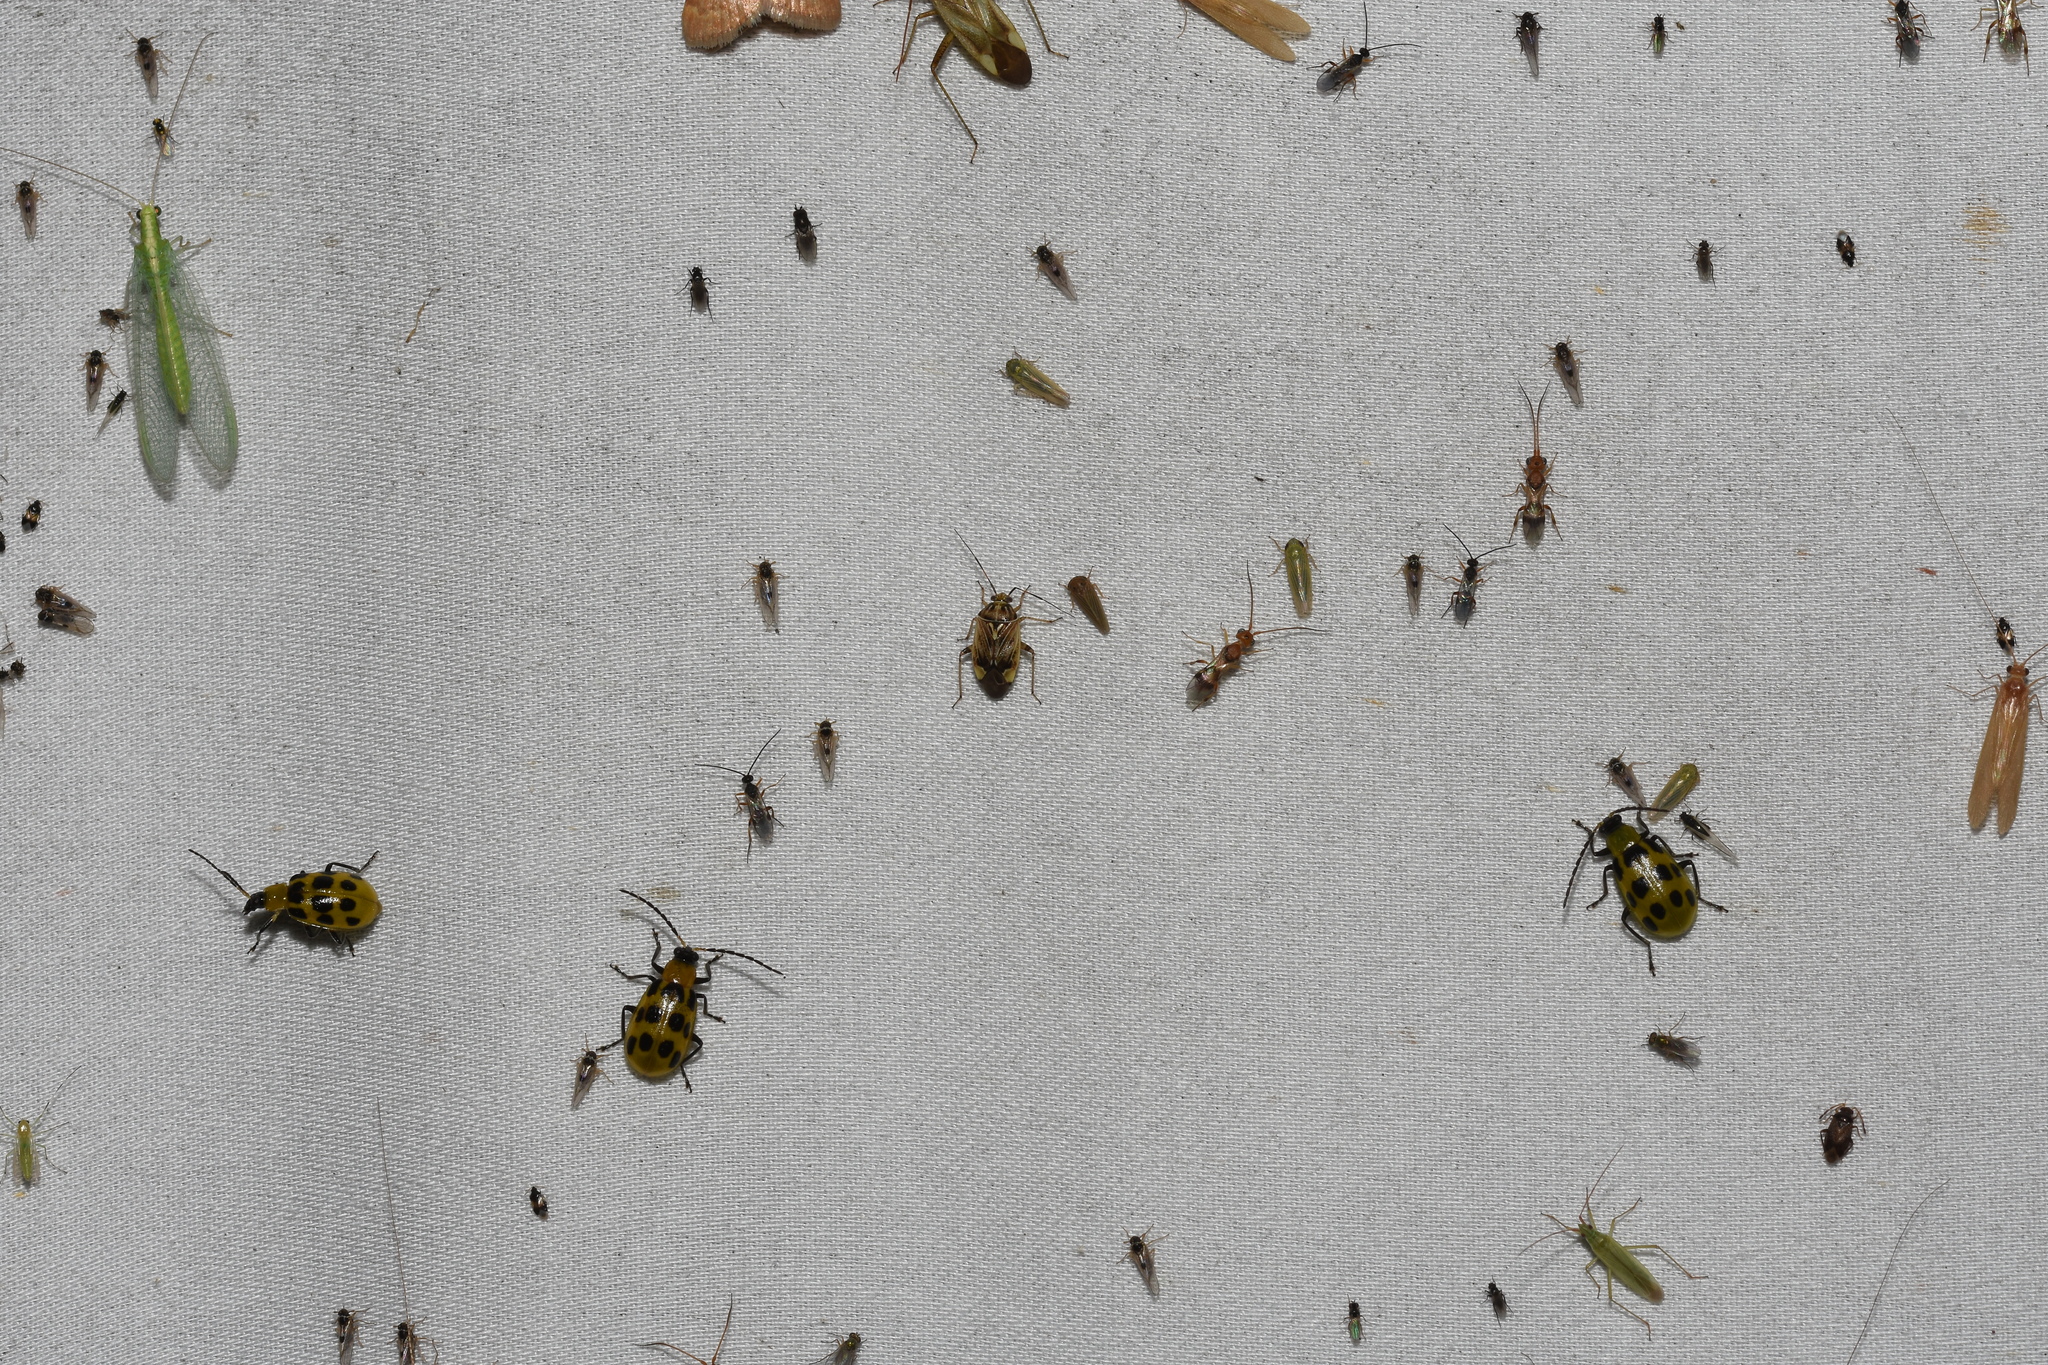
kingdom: Animalia
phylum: Arthropoda
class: Insecta
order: Coleoptera
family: Chrysomelidae
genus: Diabrotica
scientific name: Diabrotica undecimpunctata
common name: Spotted cucumber beetle
